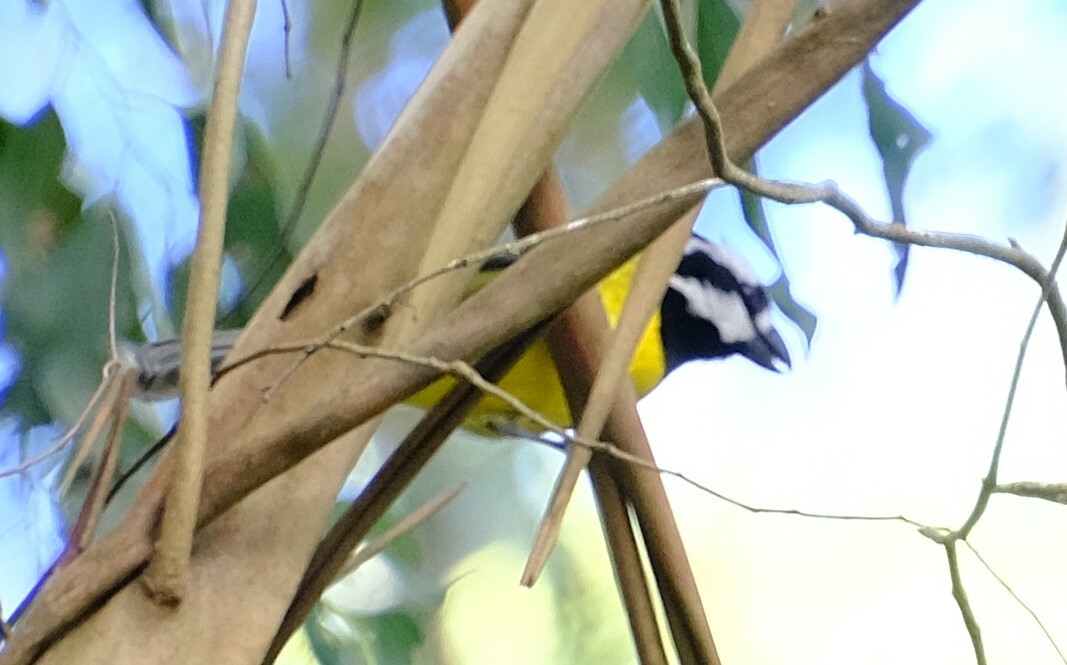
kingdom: Animalia
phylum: Chordata
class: Aves
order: Passeriformes
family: Pachycephalidae
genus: Falcunculus
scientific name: Falcunculus frontatus
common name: Crested shriketit
